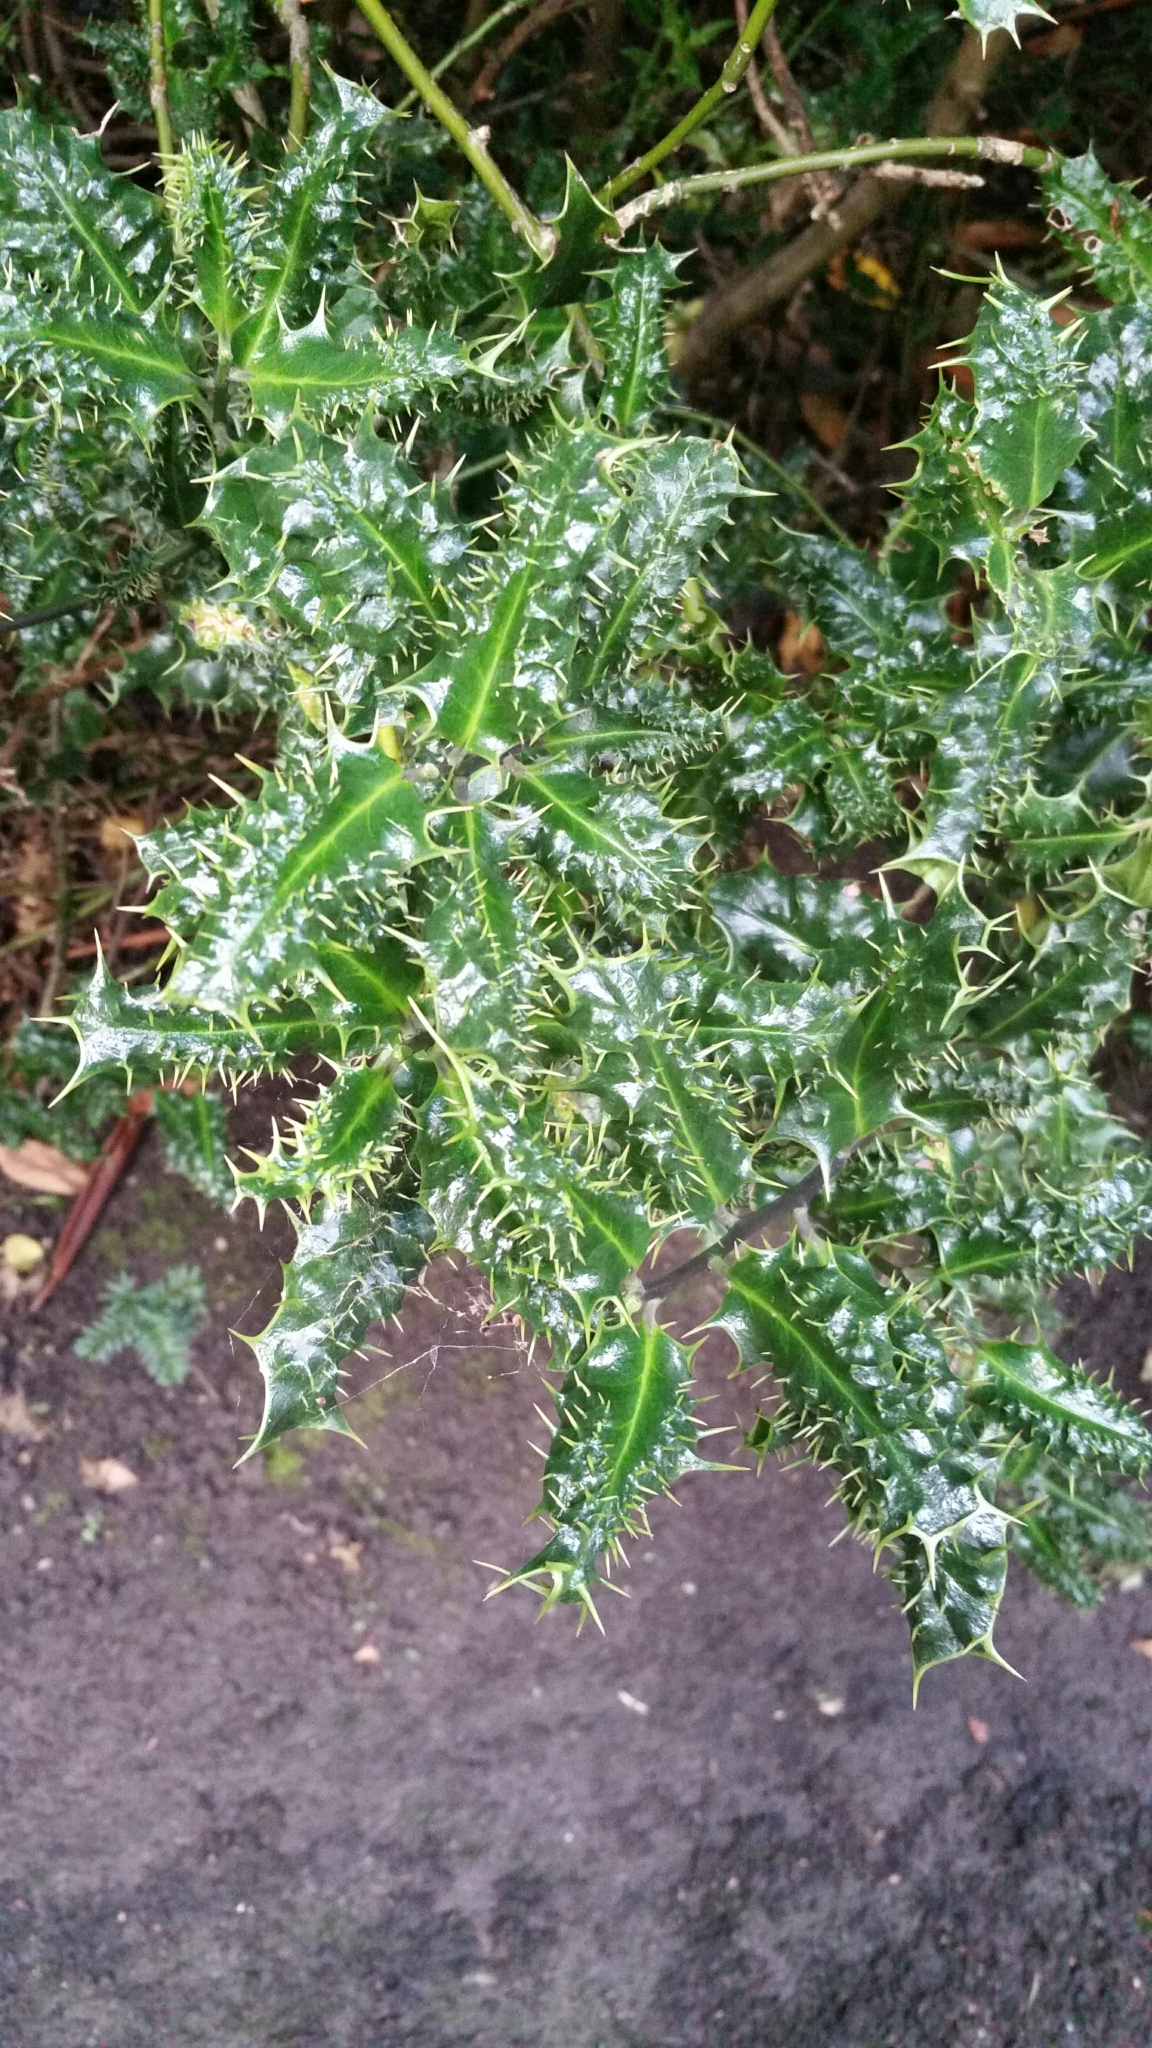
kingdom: Plantae
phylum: Tracheophyta
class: Magnoliopsida
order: Aquifoliales
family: Aquifoliaceae
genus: Ilex
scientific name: Ilex aquifolium
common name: English holly
